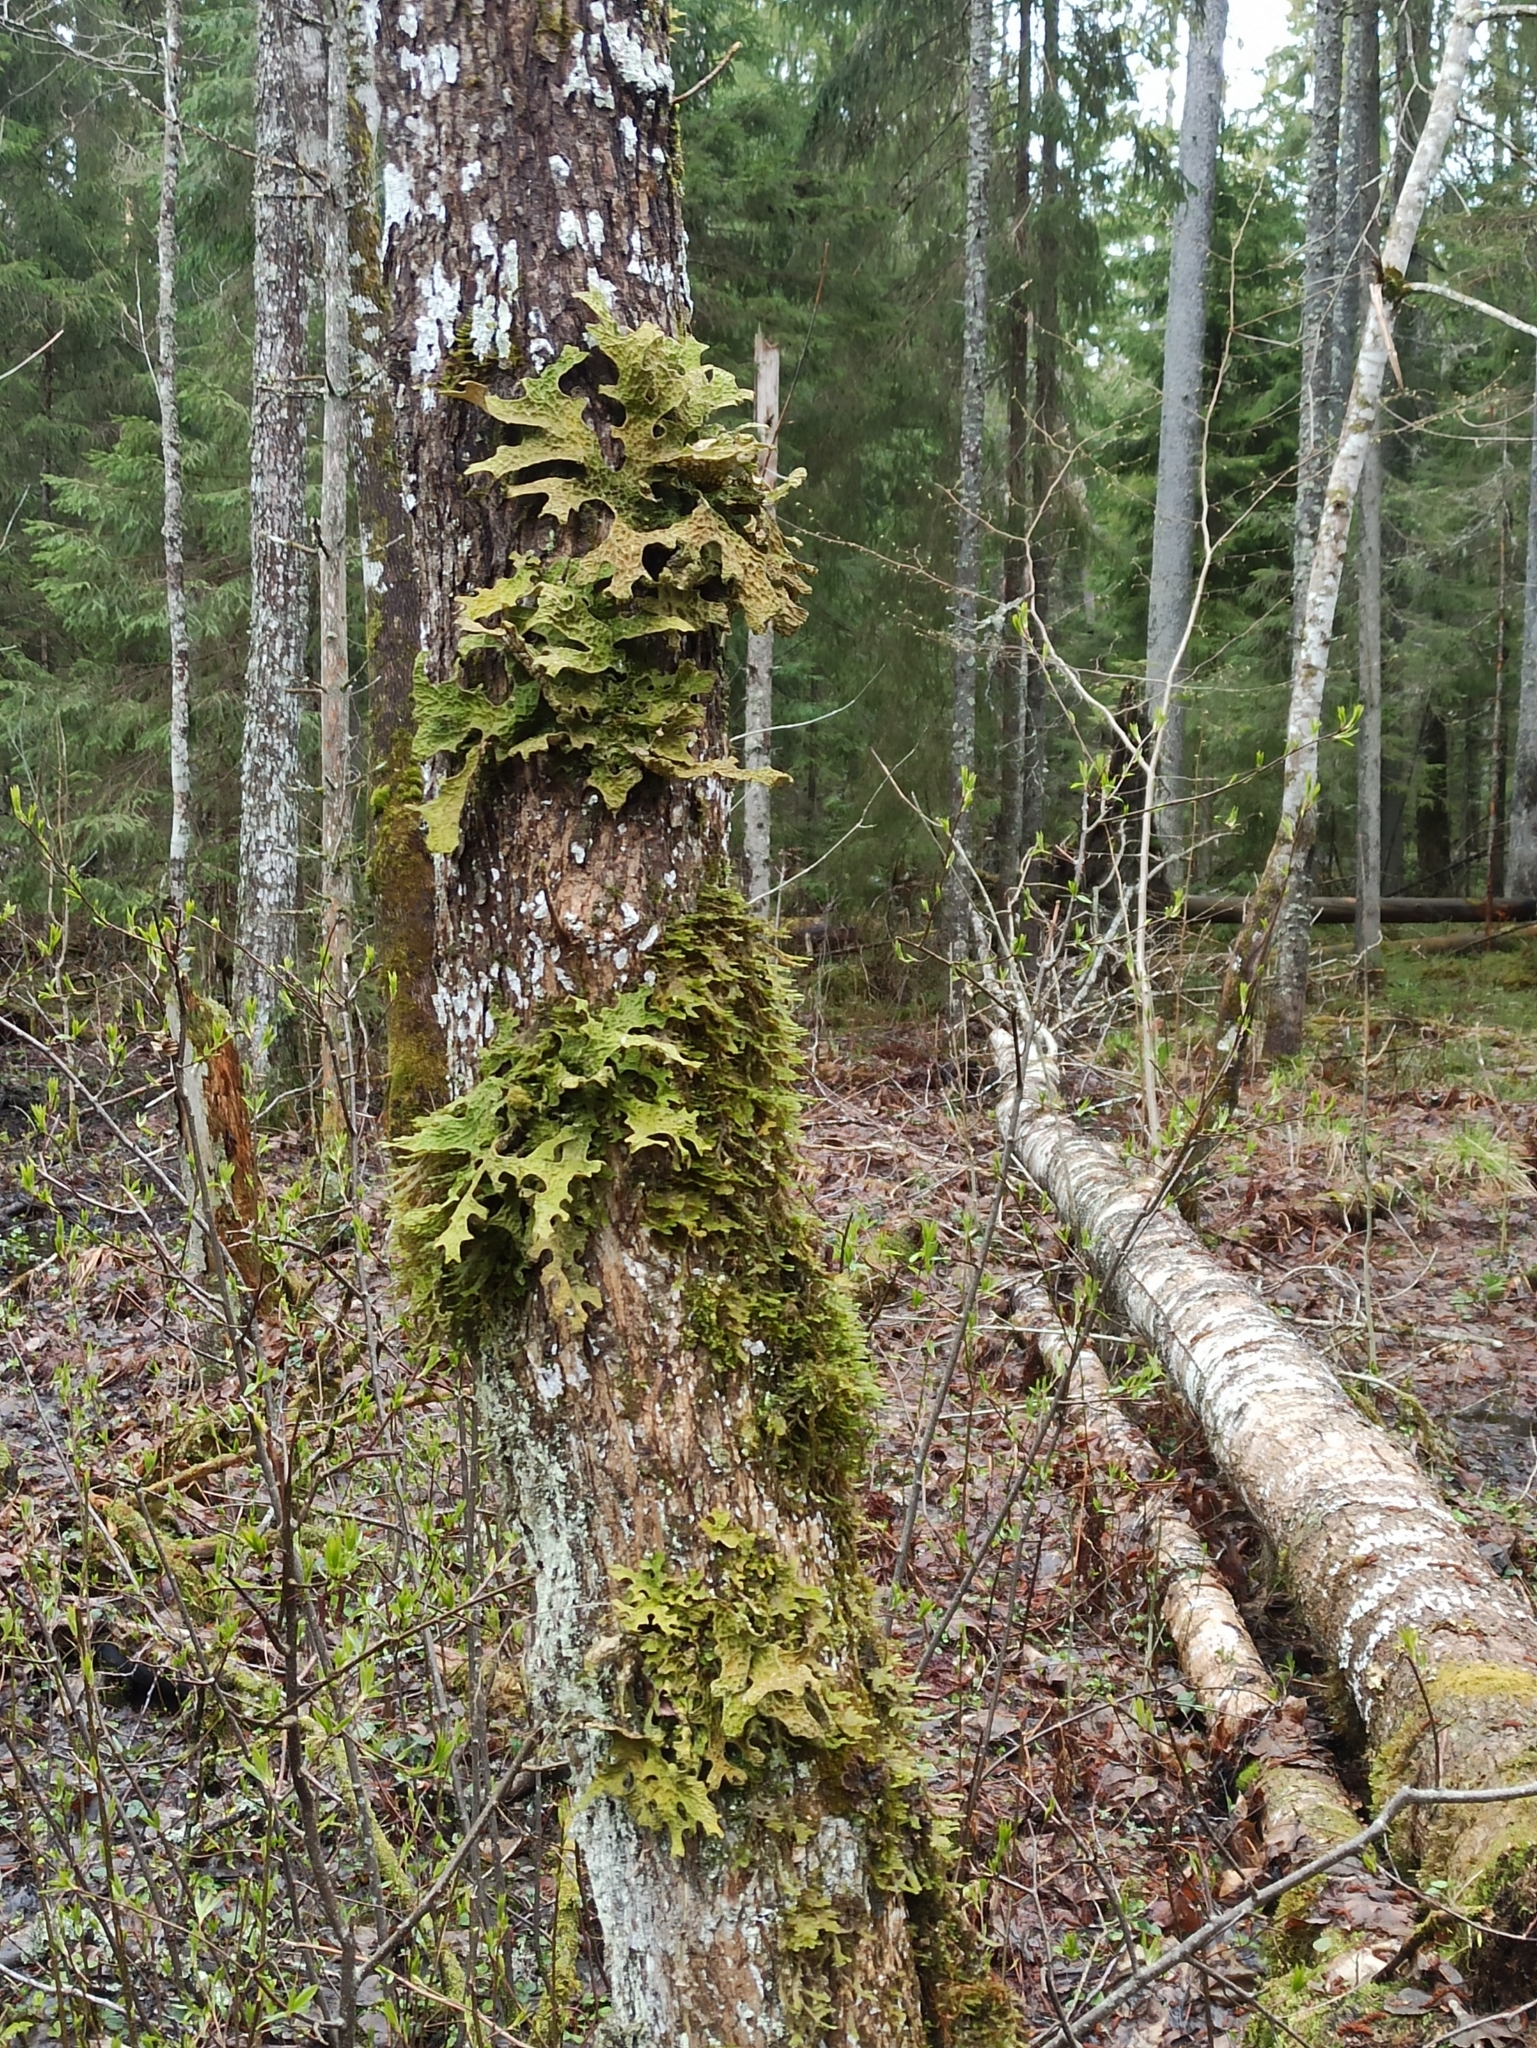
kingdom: Fungi
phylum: Ascomycota
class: Lecanoromycetes
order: Peltigerales
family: Lobariaceae
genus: Lobaria
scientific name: Lobaria pulmonaria
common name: Lungwort
